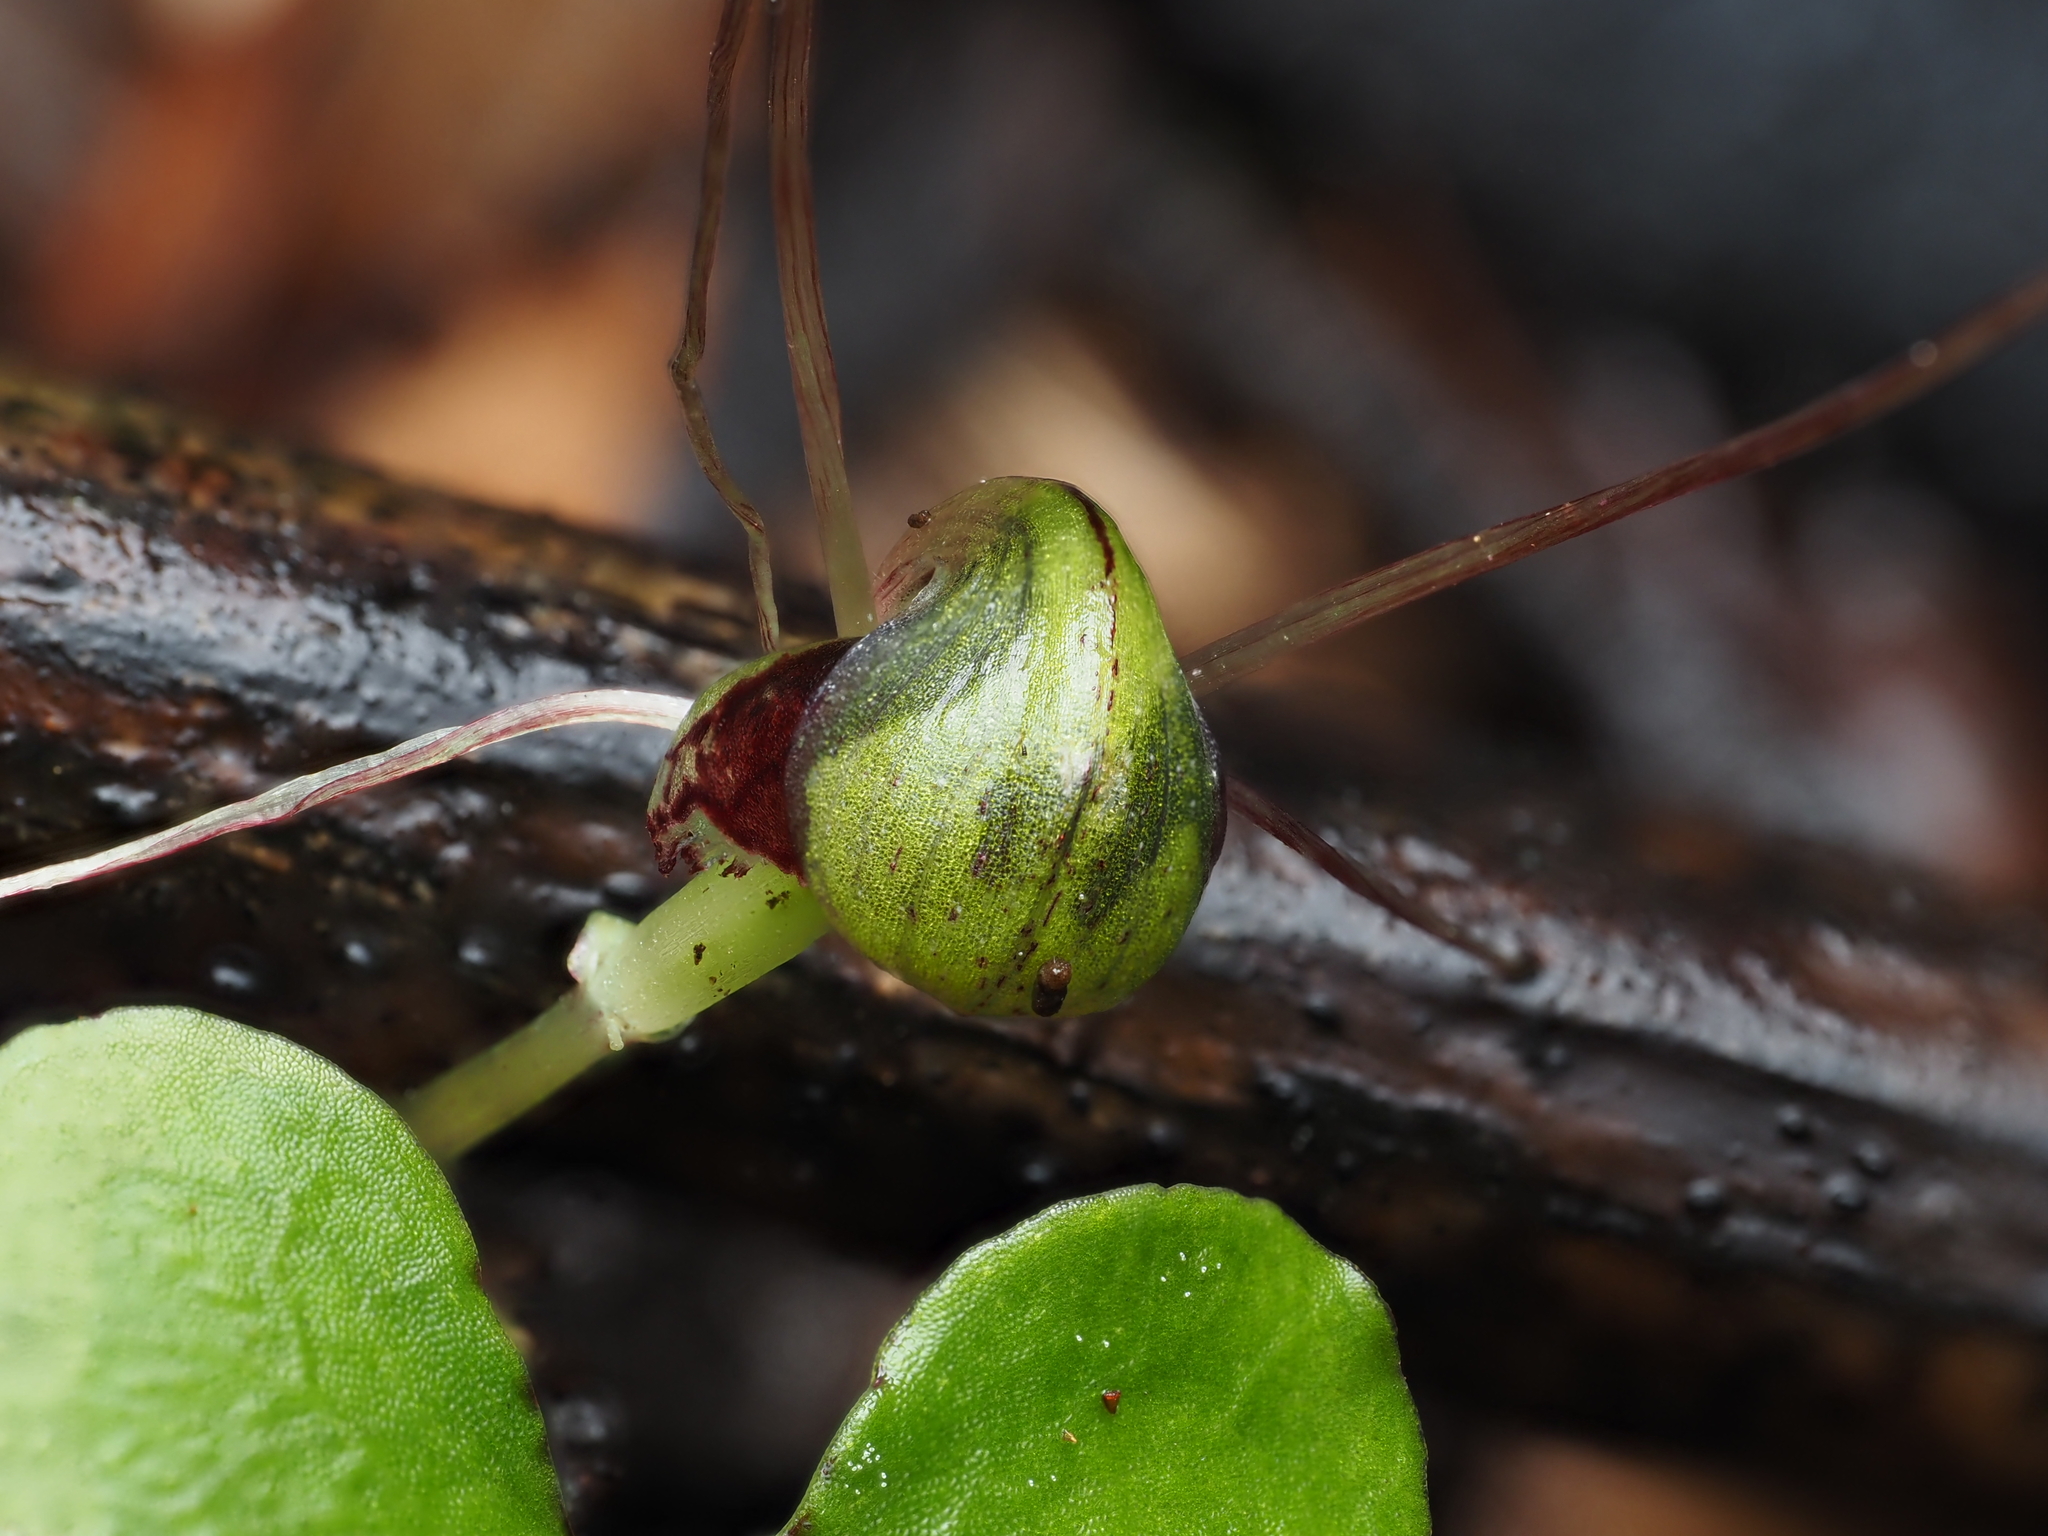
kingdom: Plantae
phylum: Tracheophyta
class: Liliopsida
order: Asparagales
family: Orchidaceae
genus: Corybas
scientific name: Corybas vitreus
